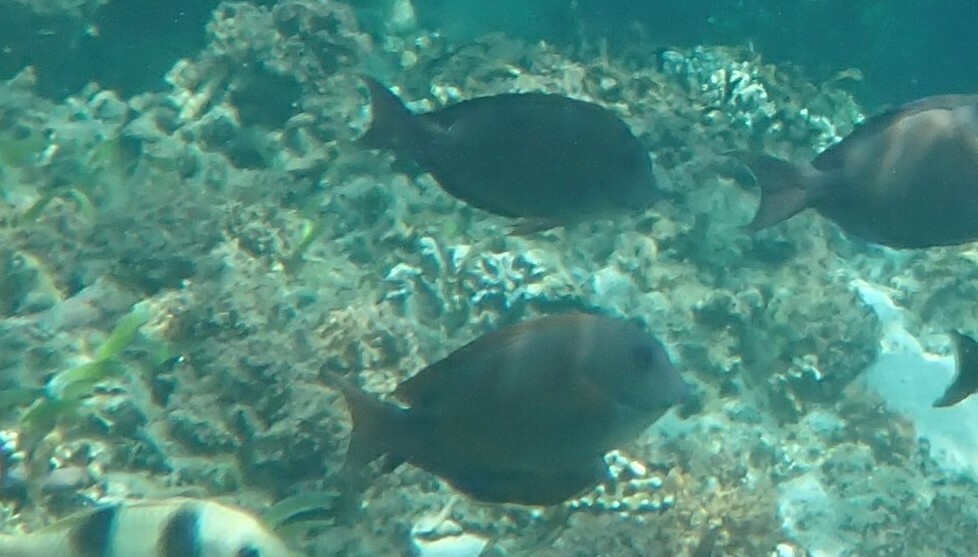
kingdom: Animalia
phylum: Chordata
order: Perciformes
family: Acanthuridae
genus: Acanthurus
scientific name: Acanthurus nigrofuscus
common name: Blackspot surgeonfish
